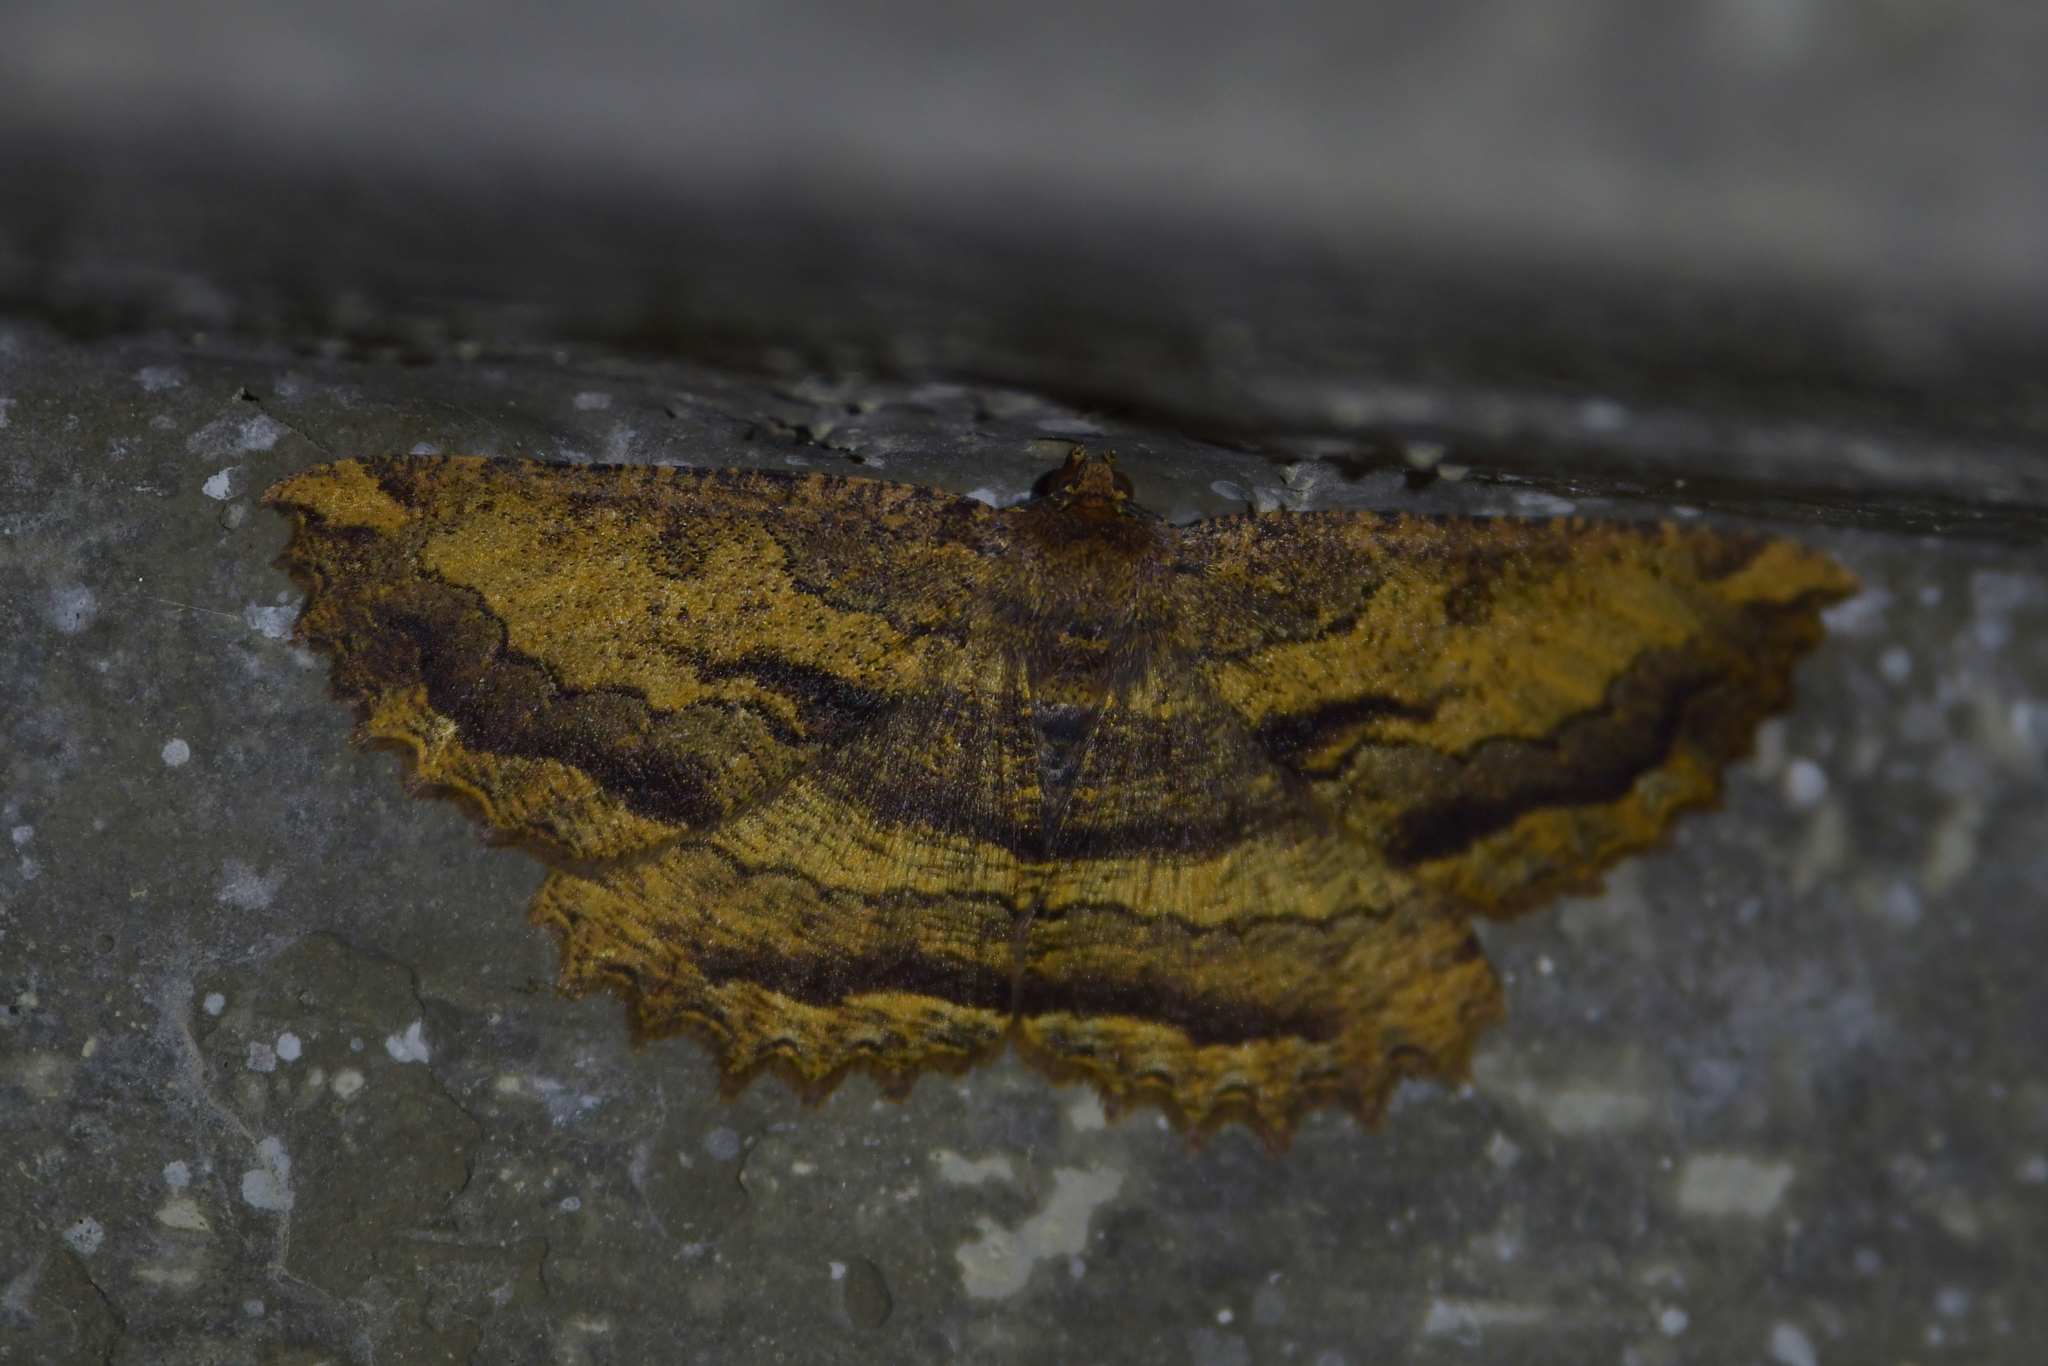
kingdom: Animalia
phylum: Arthropoda
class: Insecta
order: Lepidoptera
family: Geometridae
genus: Gellonia
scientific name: Gellonia dejectaria
